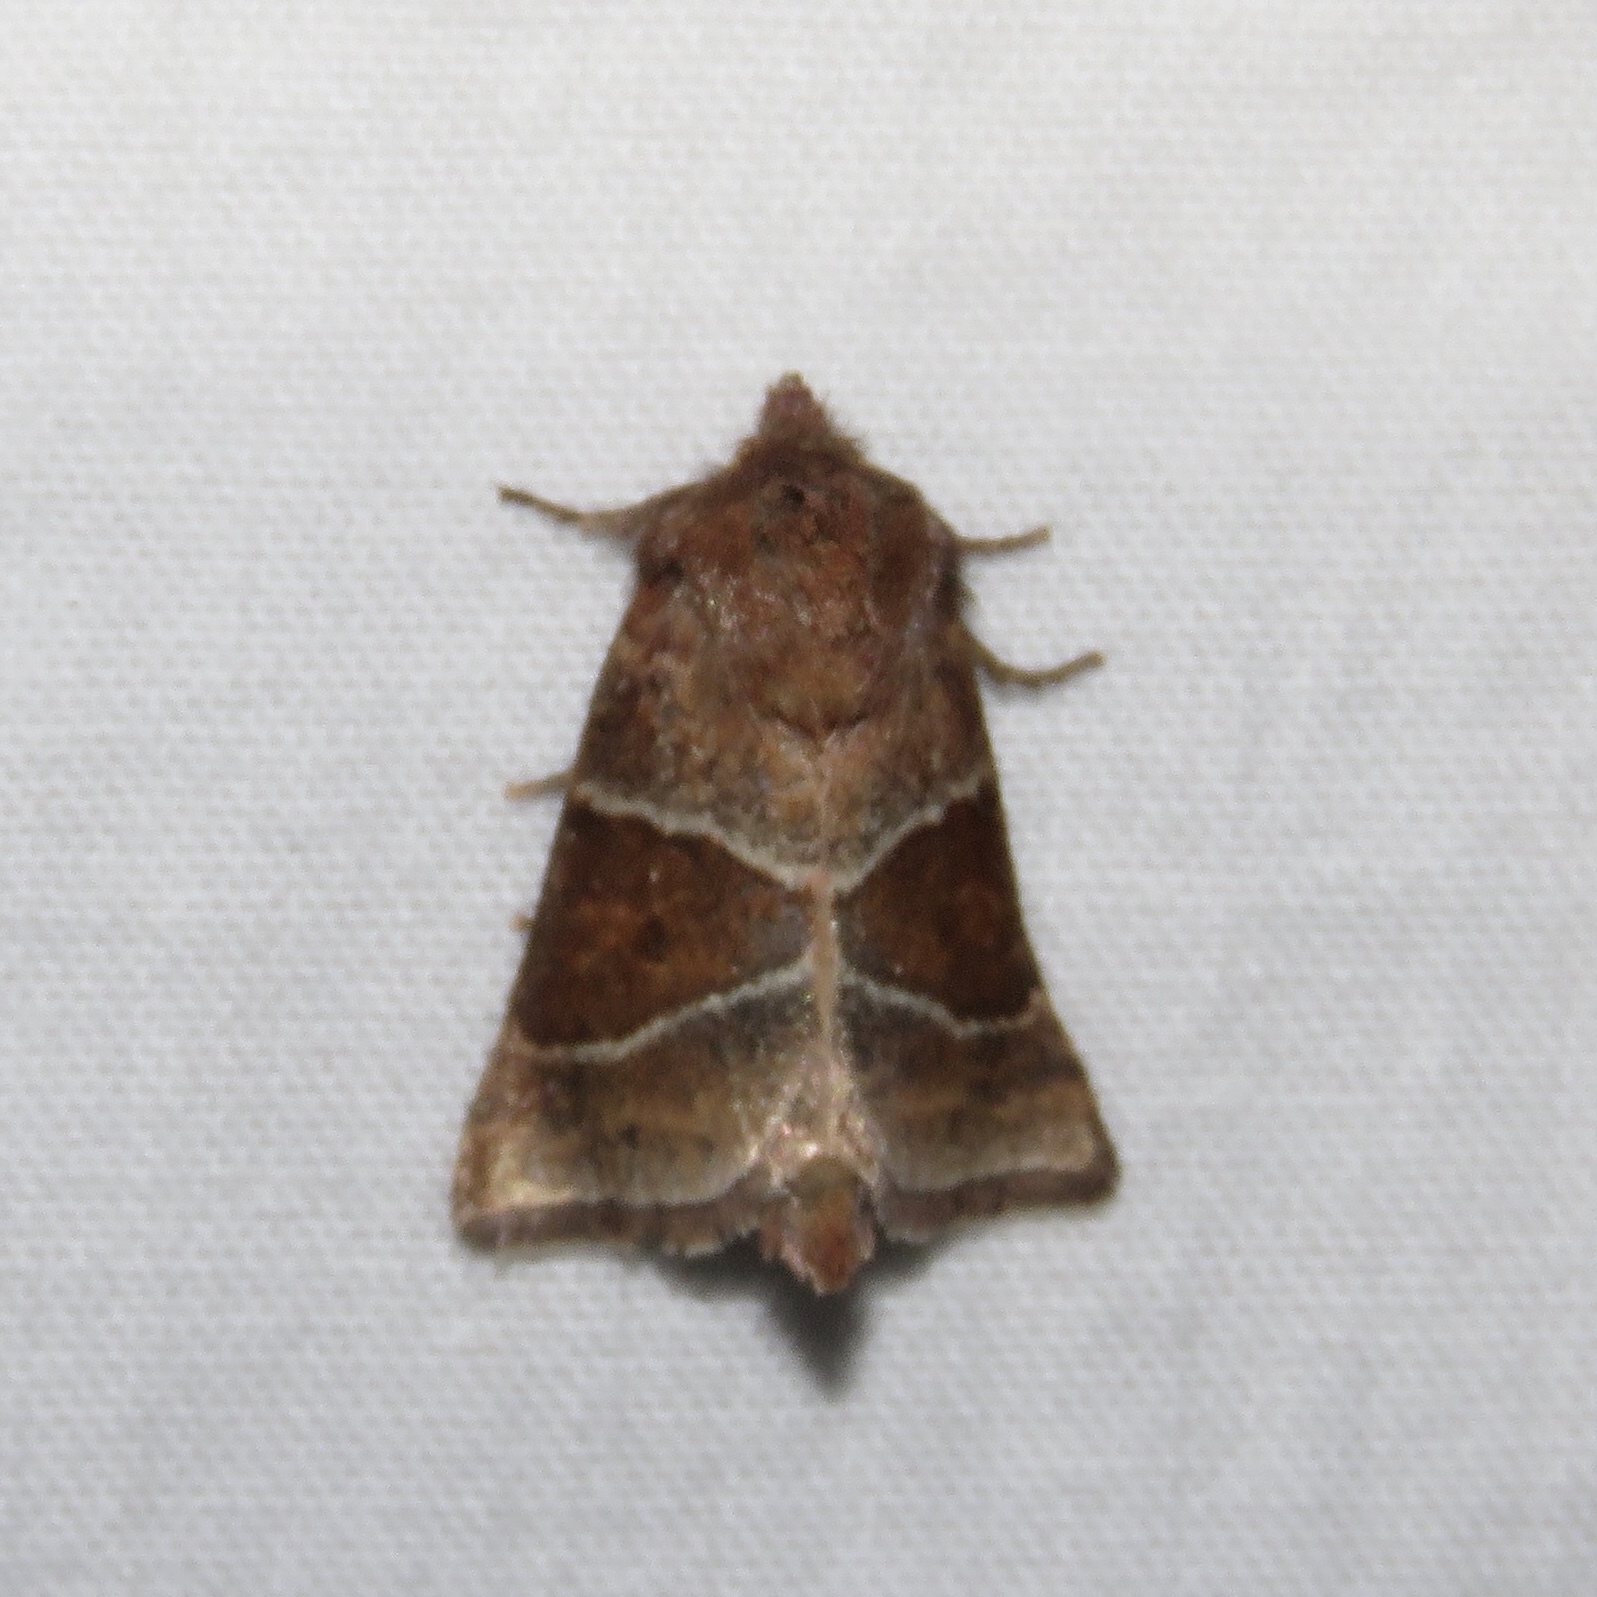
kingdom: Animalia
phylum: Arthropoda
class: Insecta
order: Lepidoptera
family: Noctuidae
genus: Lemmeria
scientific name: Lemmeria digitalis
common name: Fingered lemmeria moth
